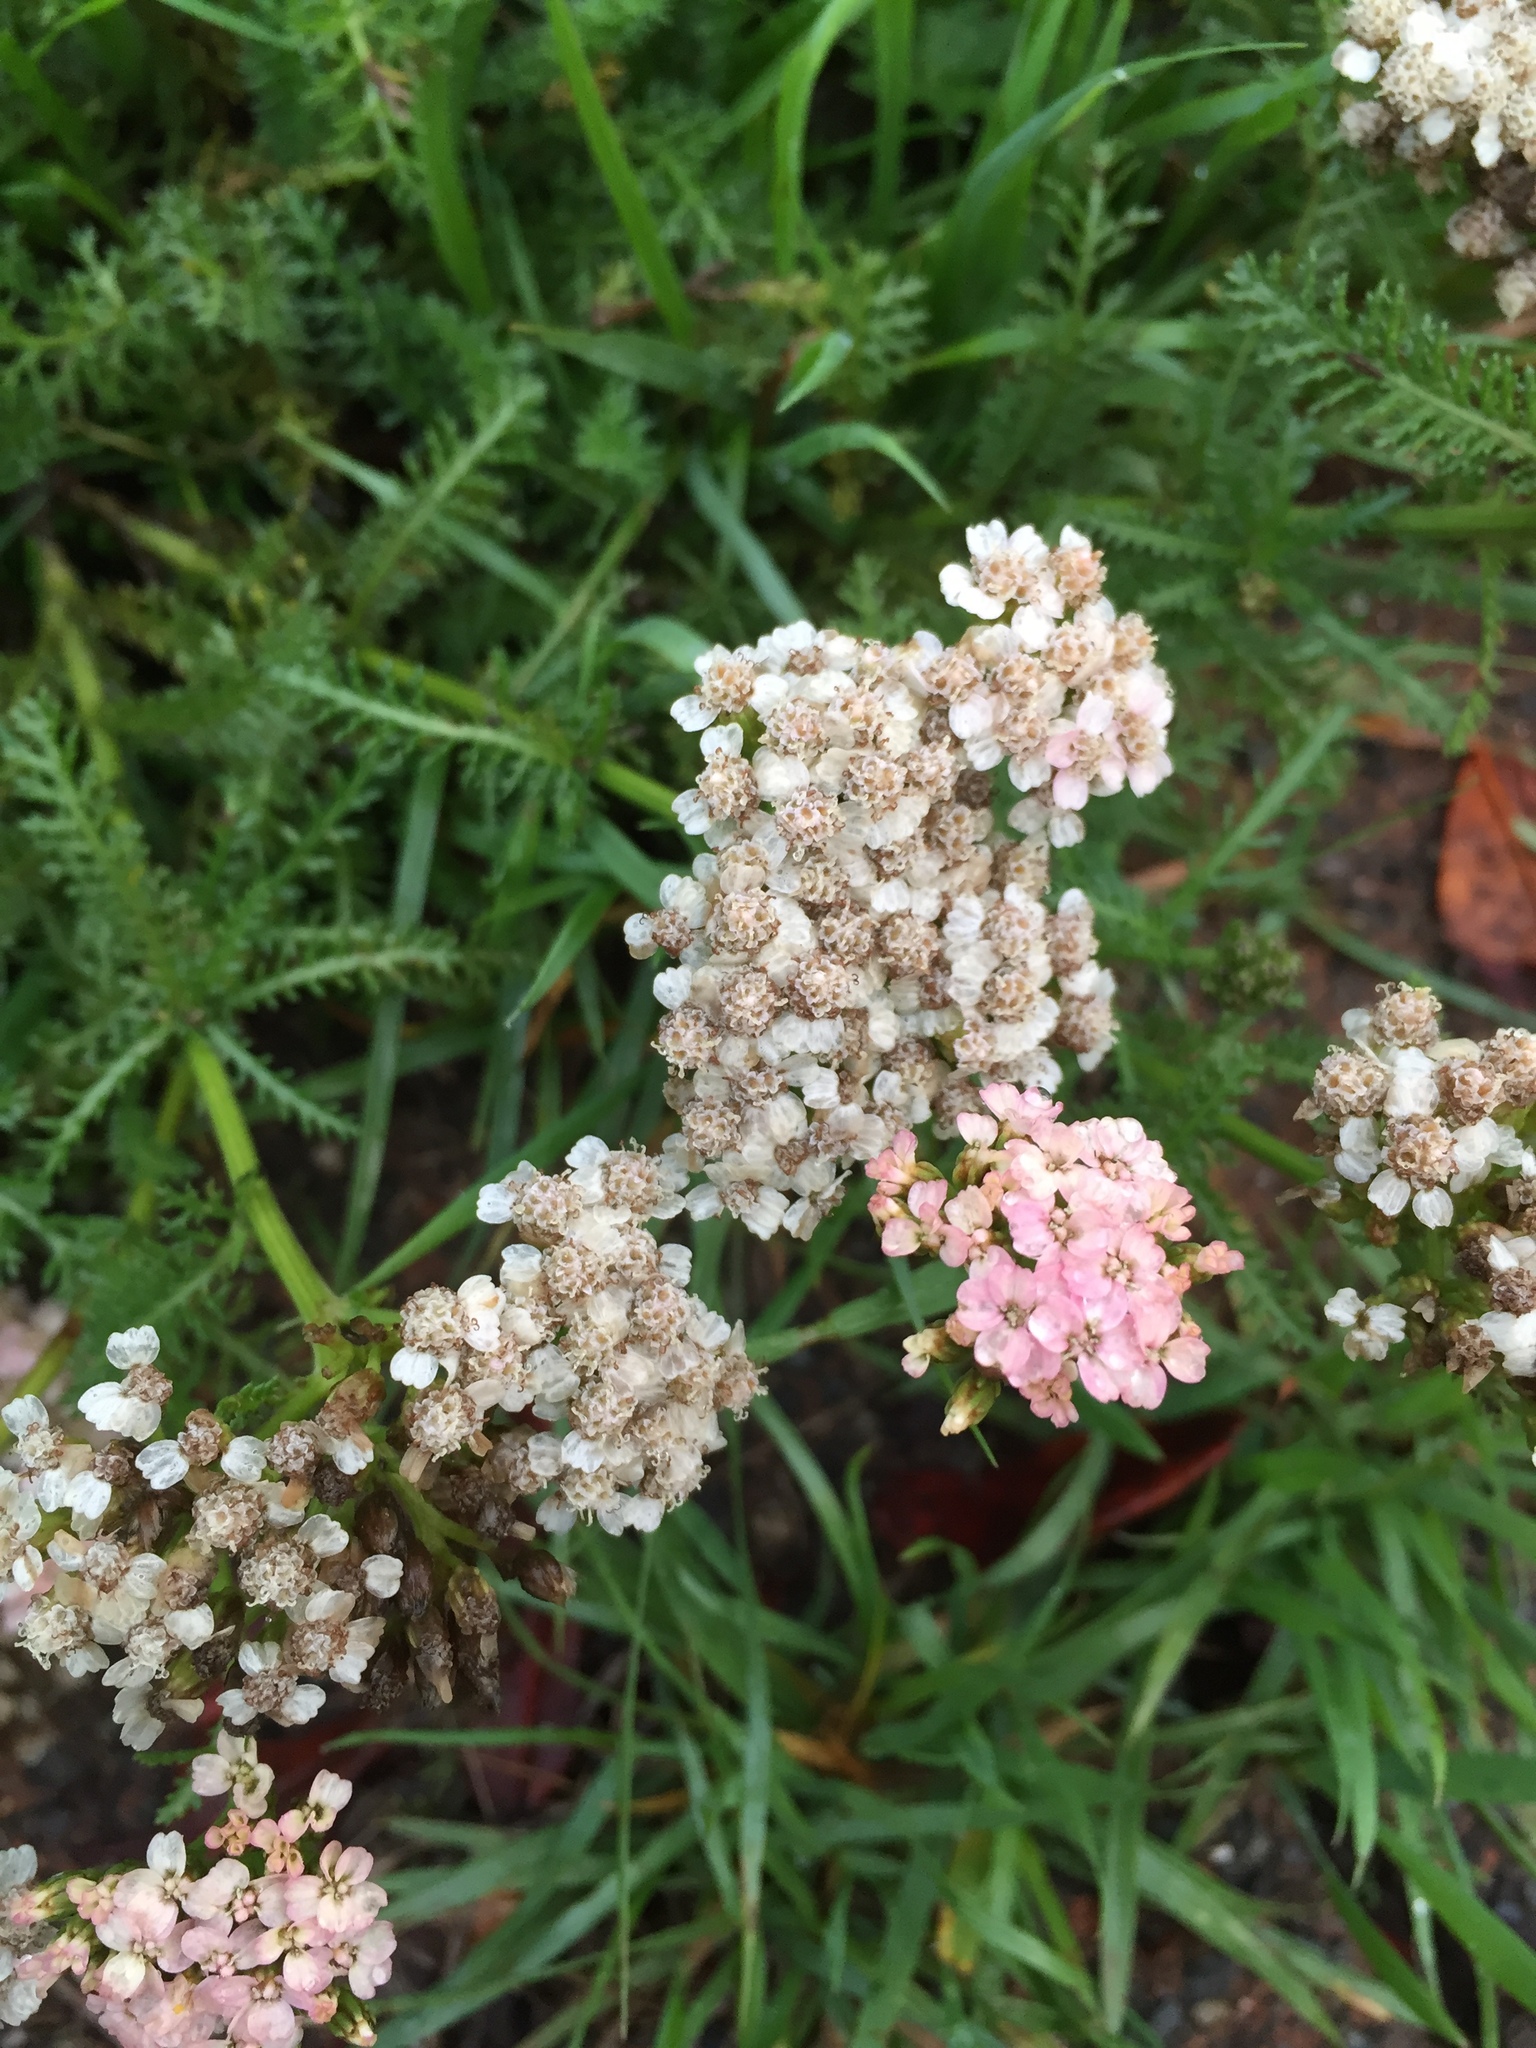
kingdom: Plantae
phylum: Tracheophyta
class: Magnoliopsida
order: Asterales
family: Asteraceae
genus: Achillea
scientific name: Achillea millefolium
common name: Yarrow
